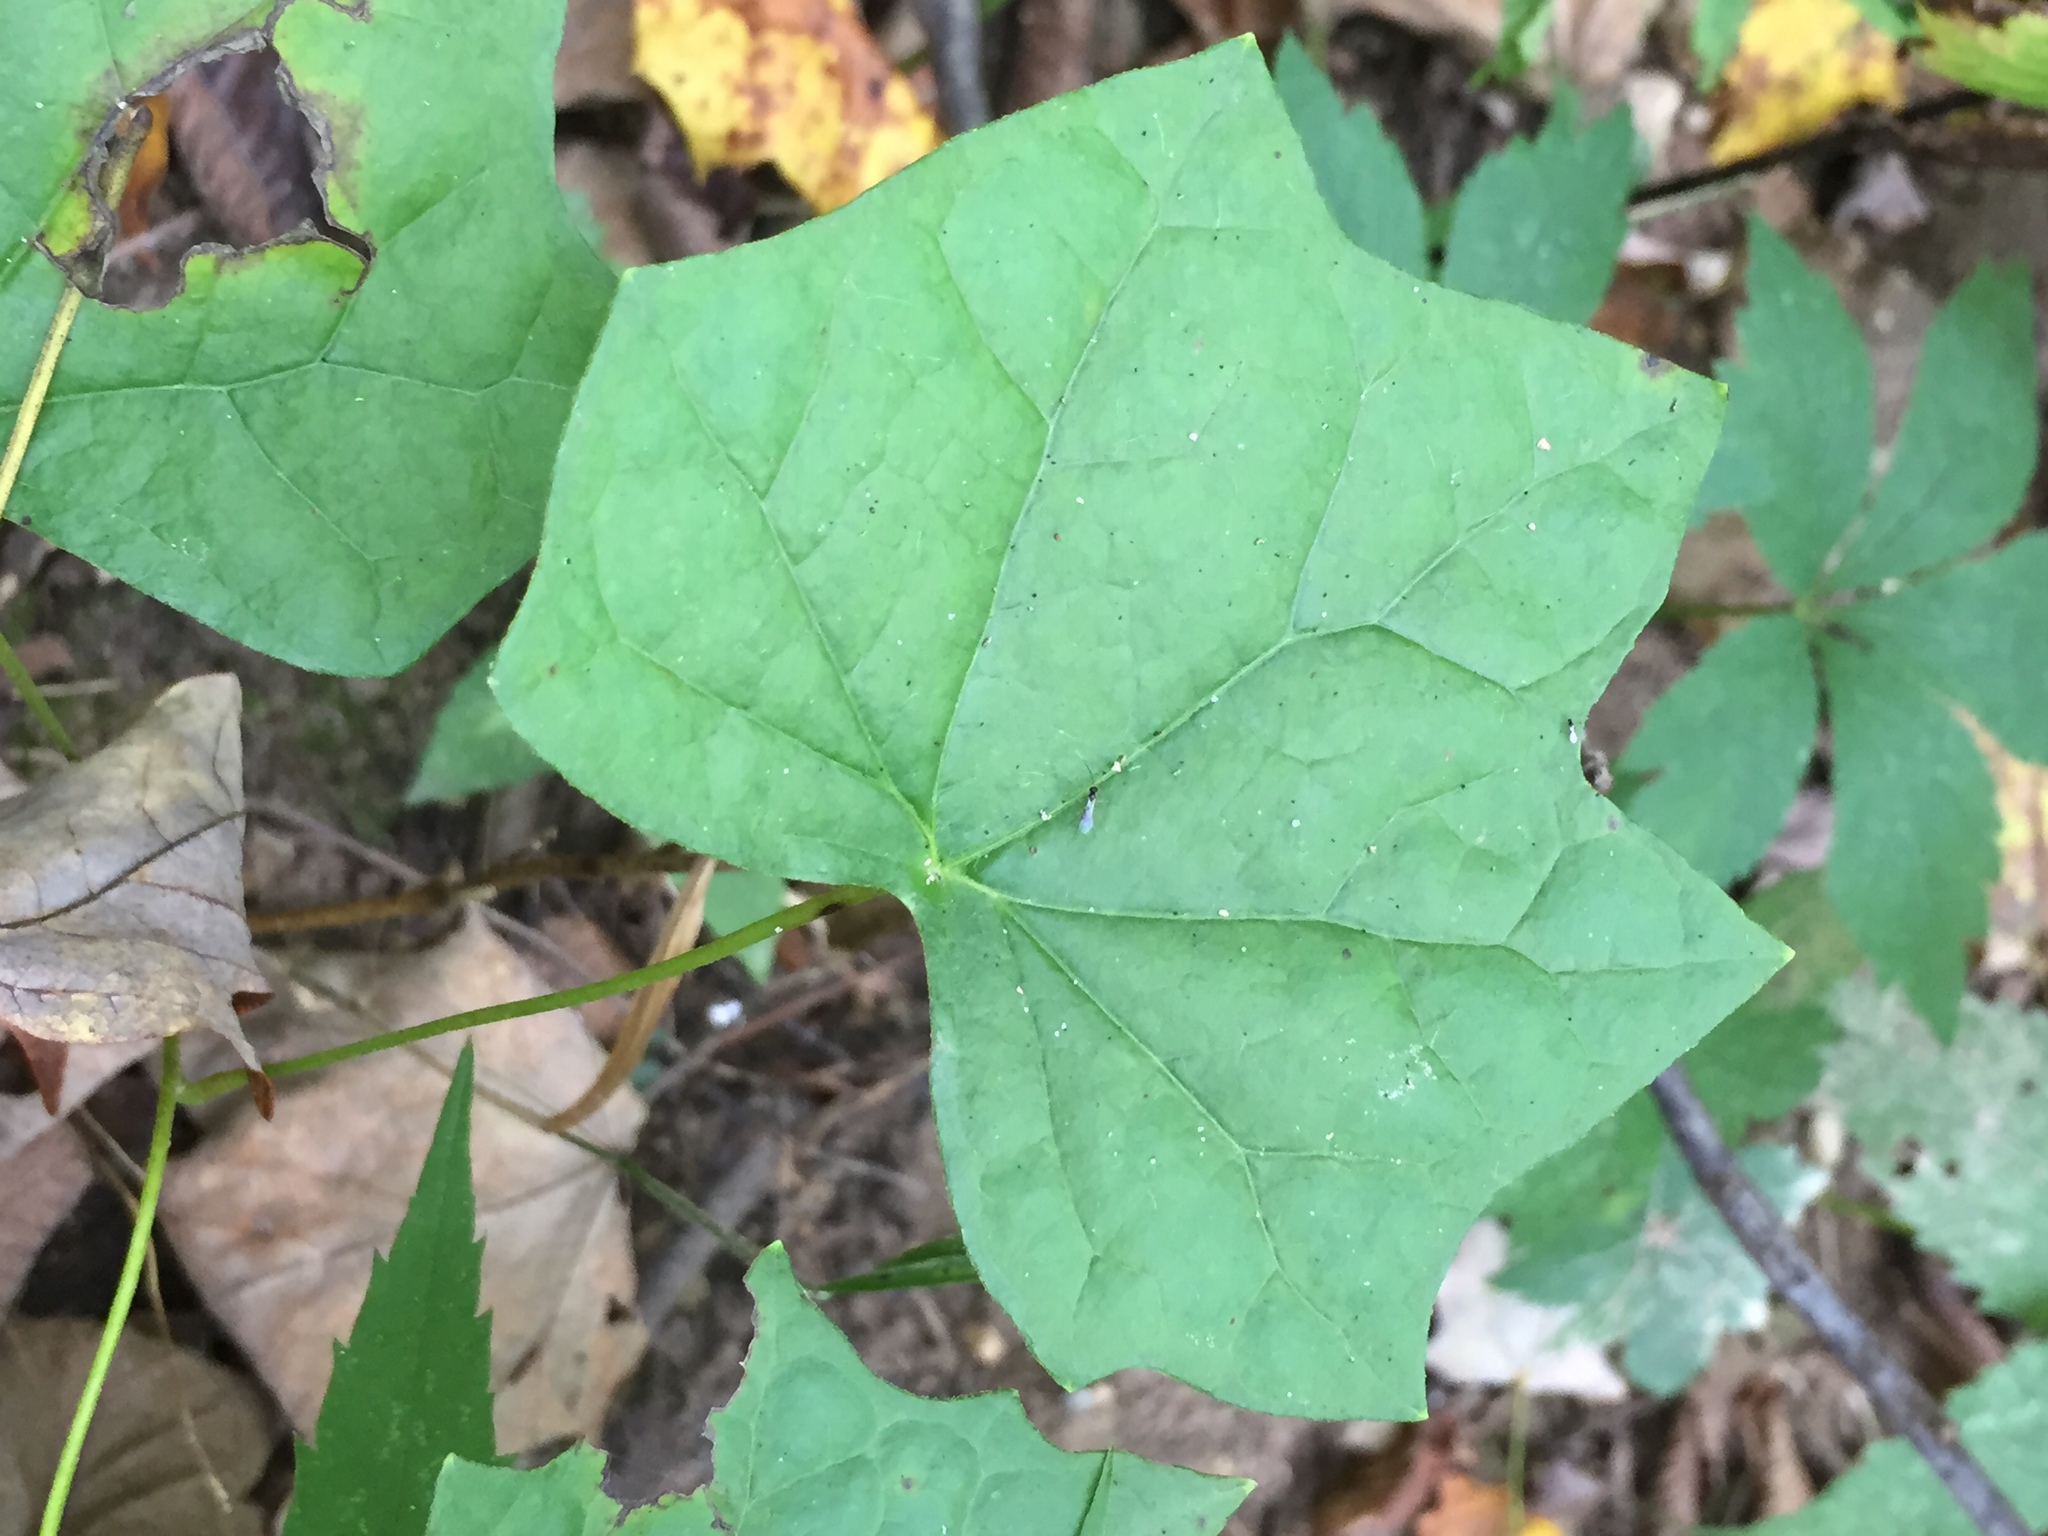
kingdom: Plantae
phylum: Tracheophyta
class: Magnoliopsida
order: Ranunculales
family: Menispermaceae
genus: Menispermum
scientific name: Menispermum canadense
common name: Moonseed
